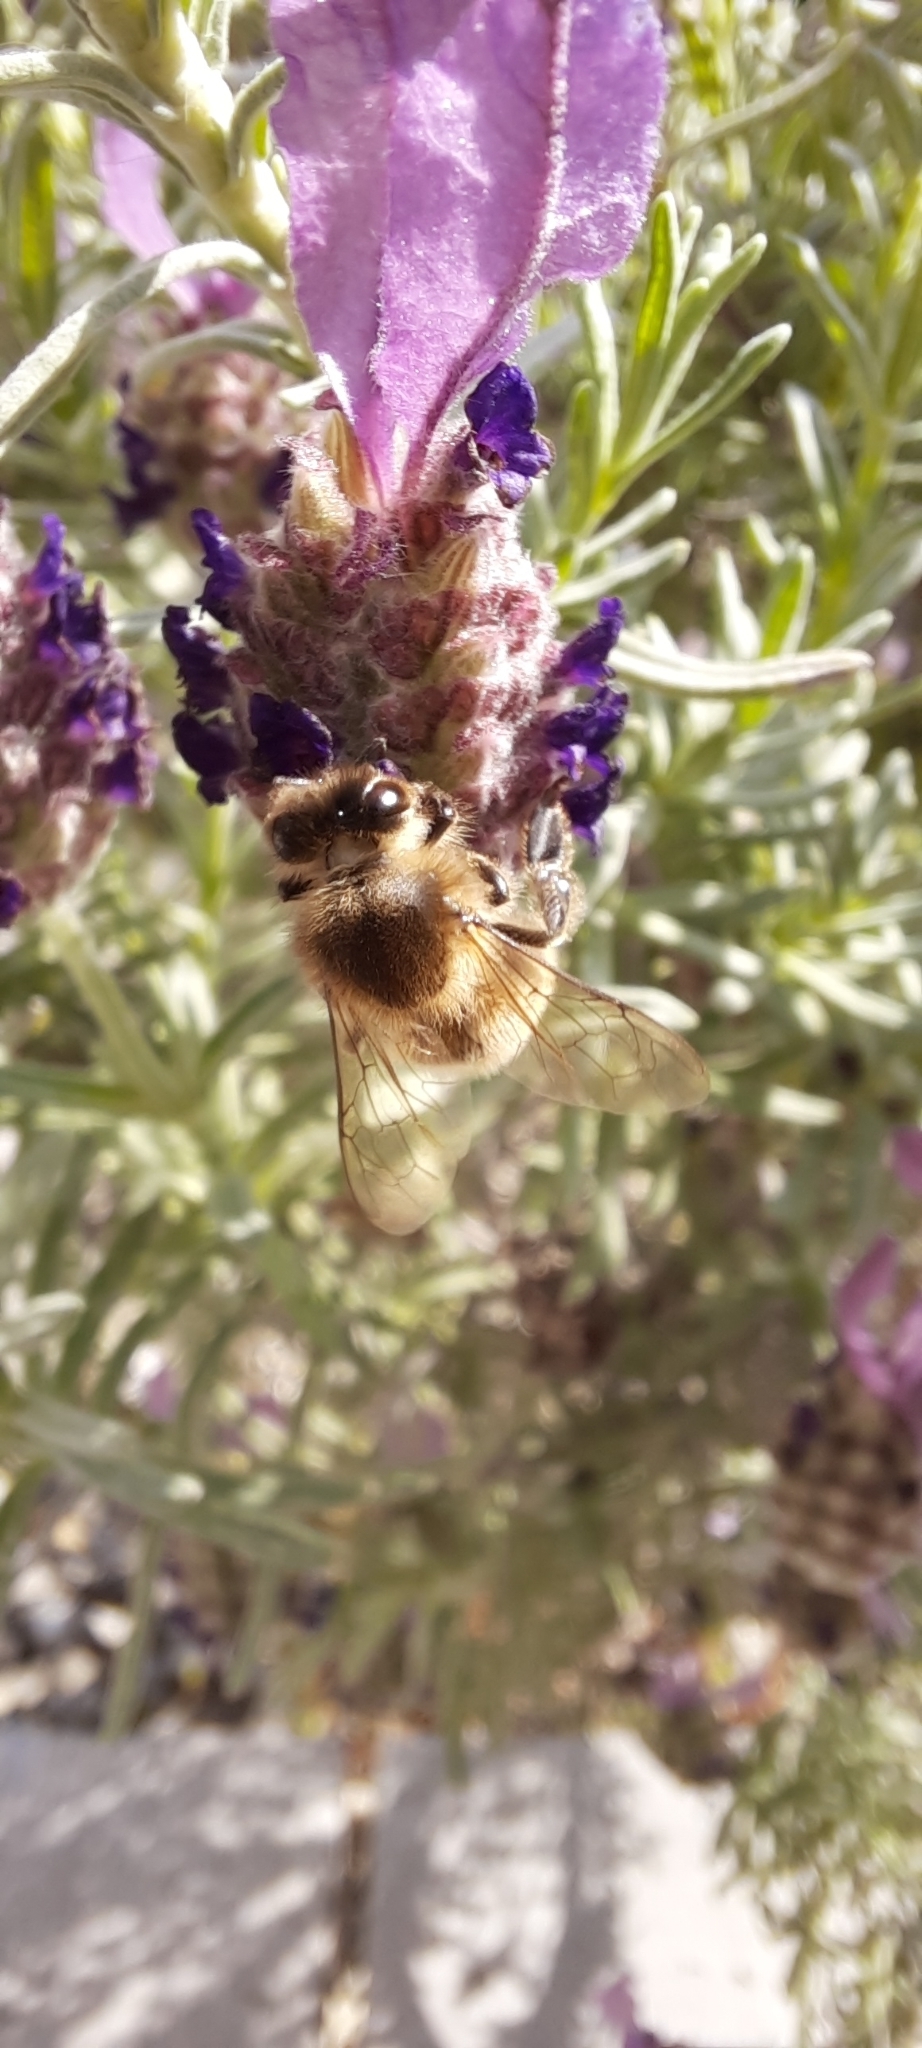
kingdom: Animalia
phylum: Arthropoda
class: Insecta
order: Hymenoptera
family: Apidae
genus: Apis
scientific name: Apis mellifera
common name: Honey bee
